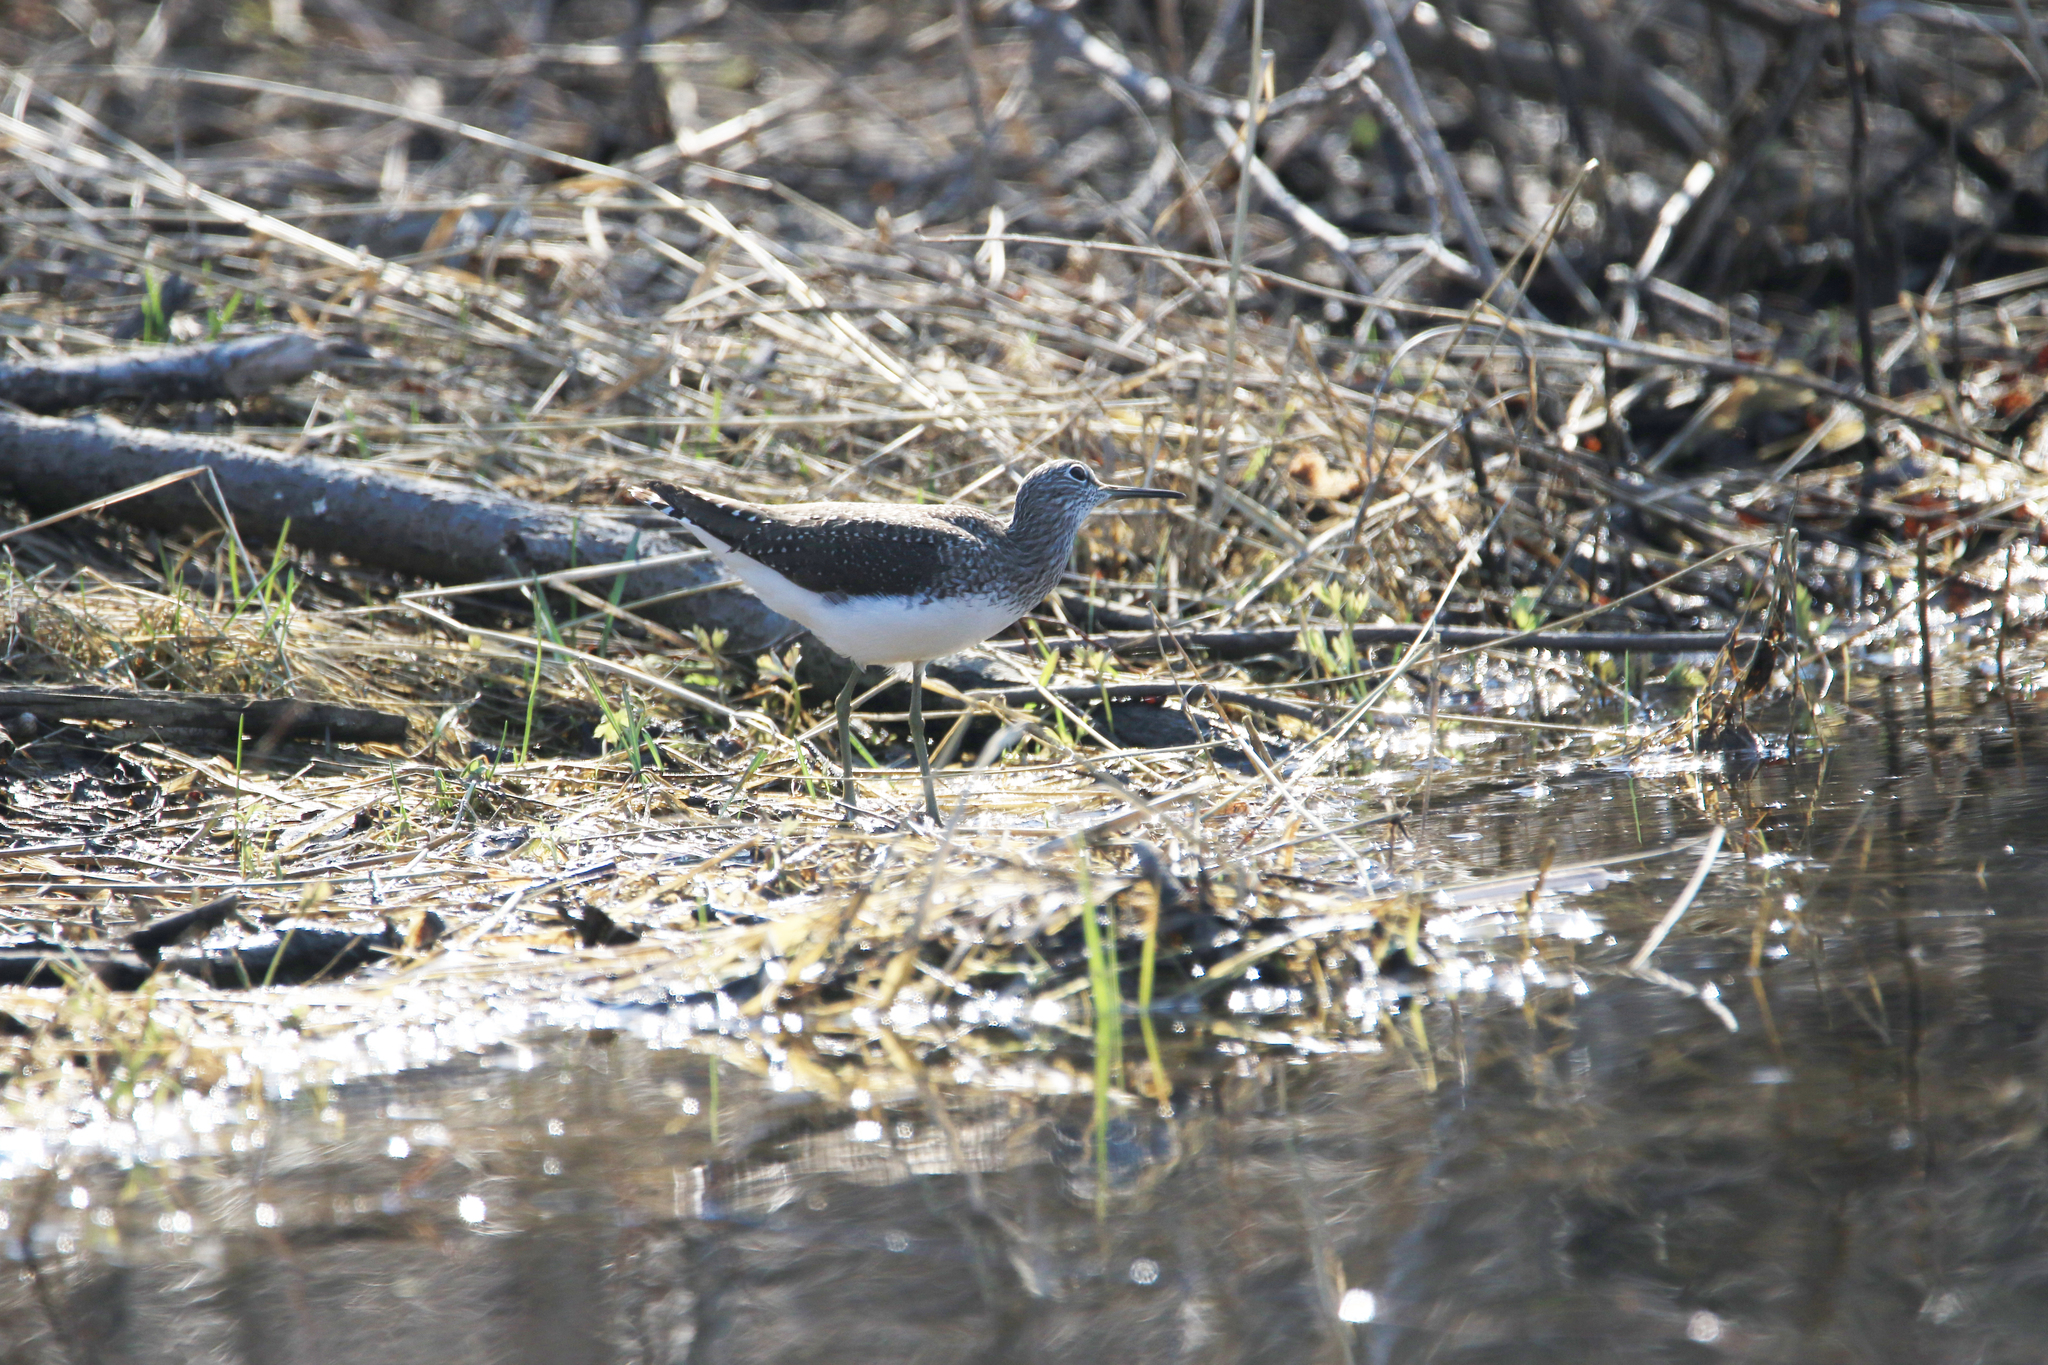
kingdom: Animalia
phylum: Chordata
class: Aves
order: Charadriiformes
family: Scolopacidae
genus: Tringa
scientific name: Tringa ochropus
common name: Green sandpiper
